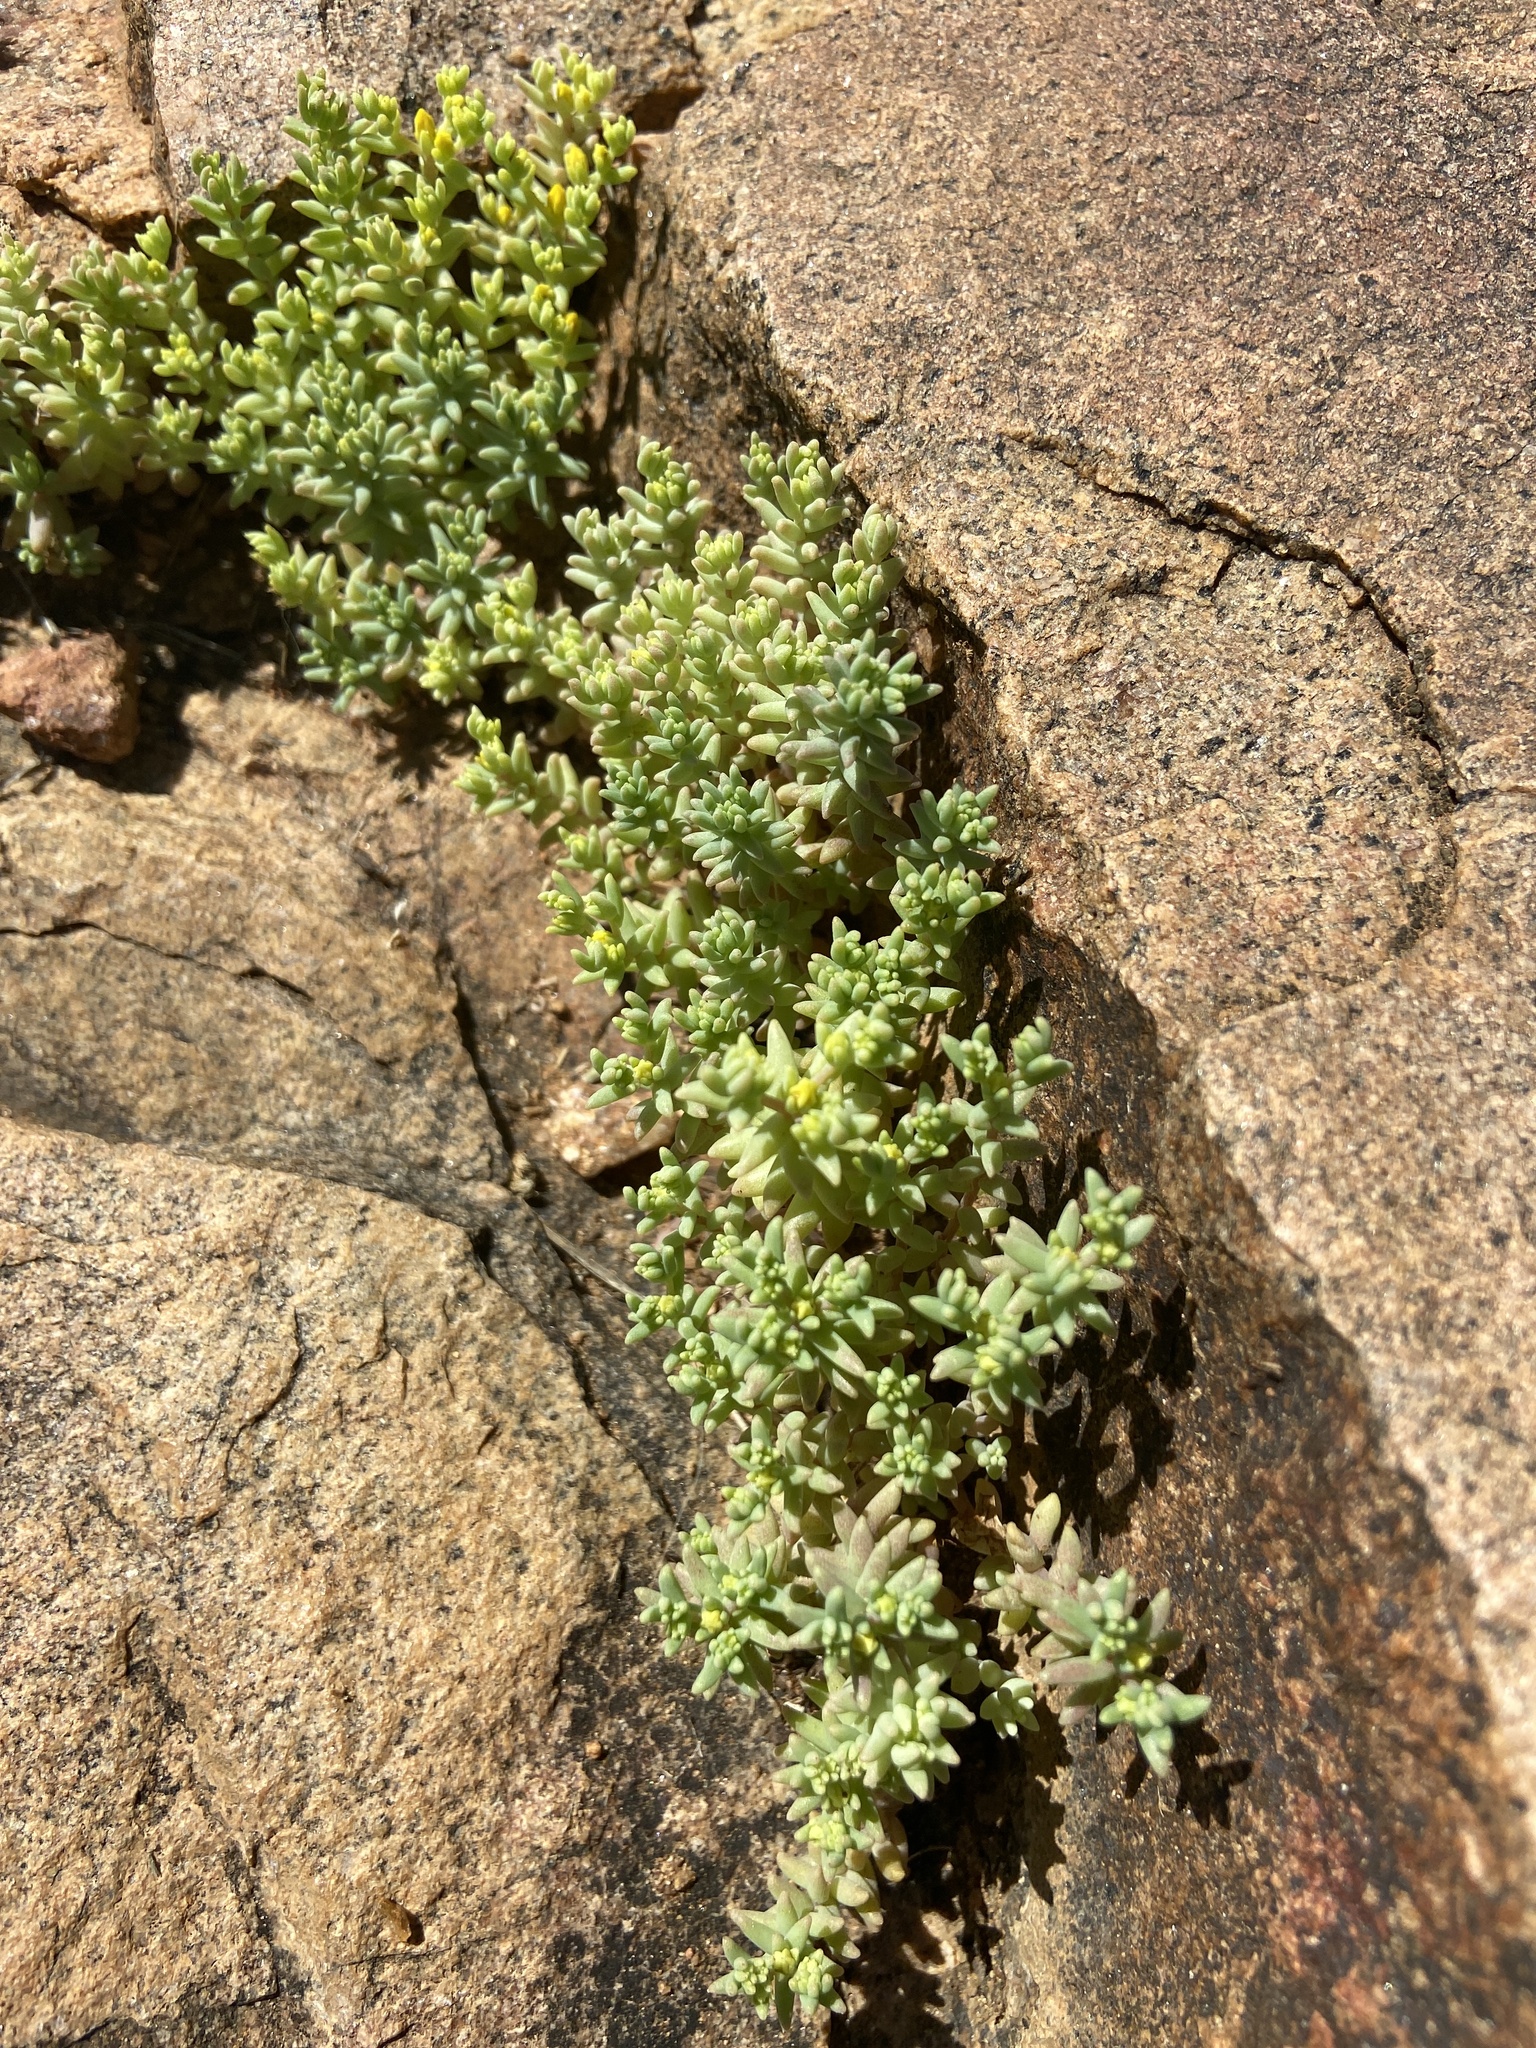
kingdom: Plantae
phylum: Tracheophyta
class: Magnoliopsida
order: Saxifragales
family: Crassulaceae
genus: Sedum
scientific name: Sedum nuttallii
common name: Yellow stonecrop
